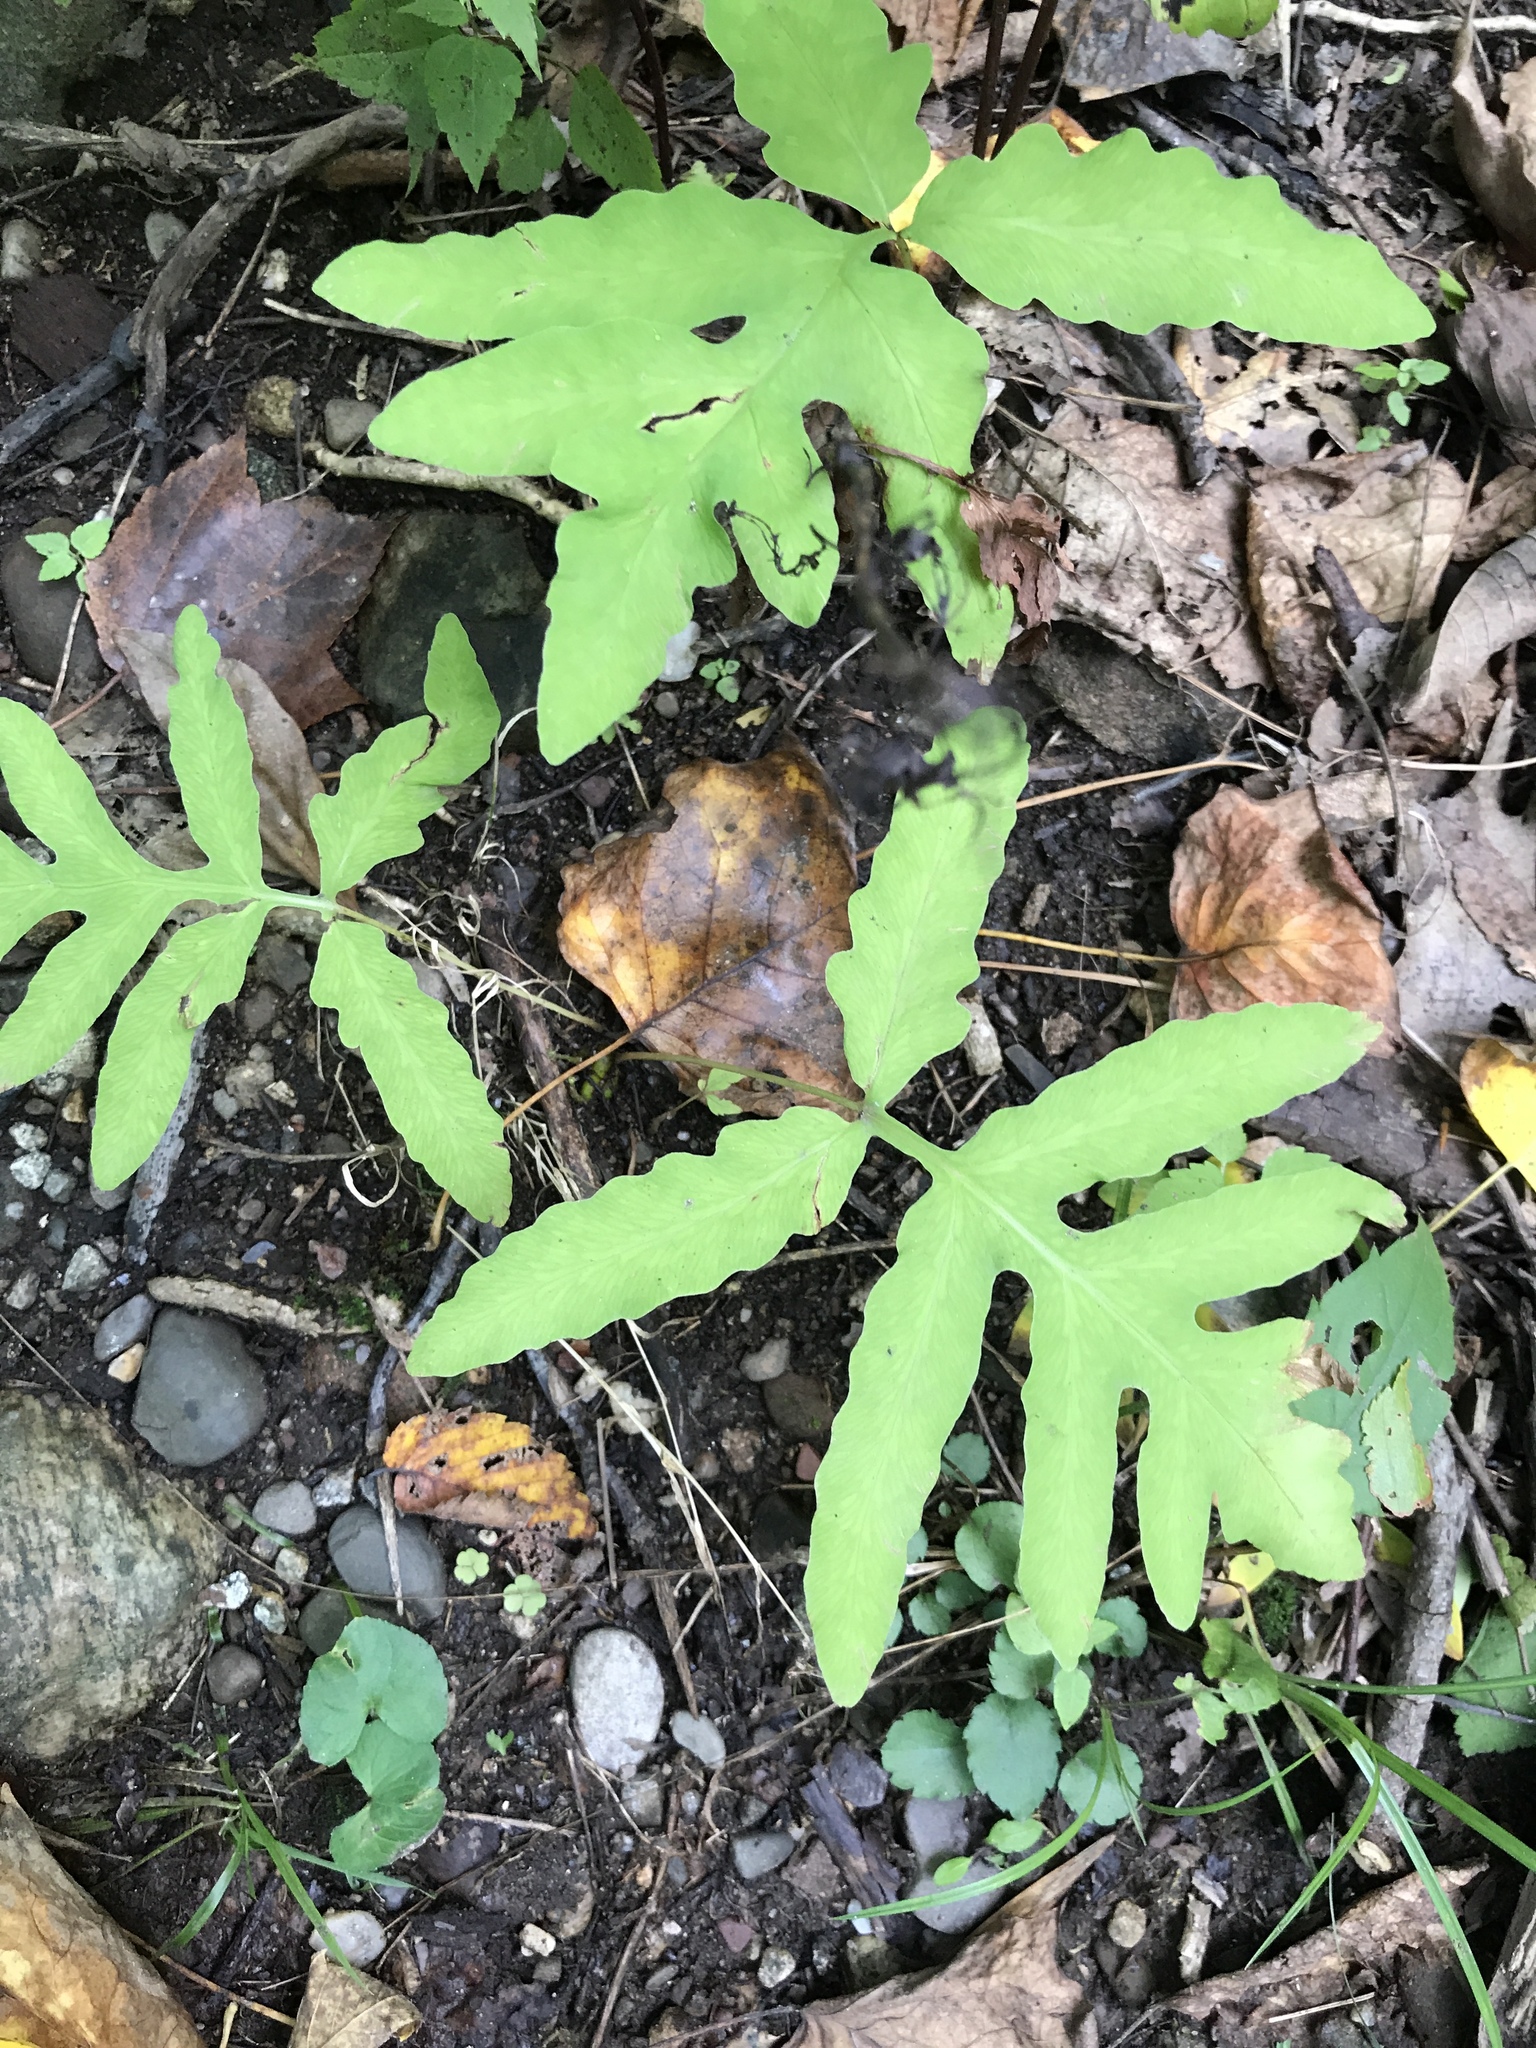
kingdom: Plantae
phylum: Tracheophyta
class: Polypodiopsida
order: Polypodiales
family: Onocleaceae
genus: Onoclea
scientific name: Onoclea sensibilis
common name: Sensitive fern
